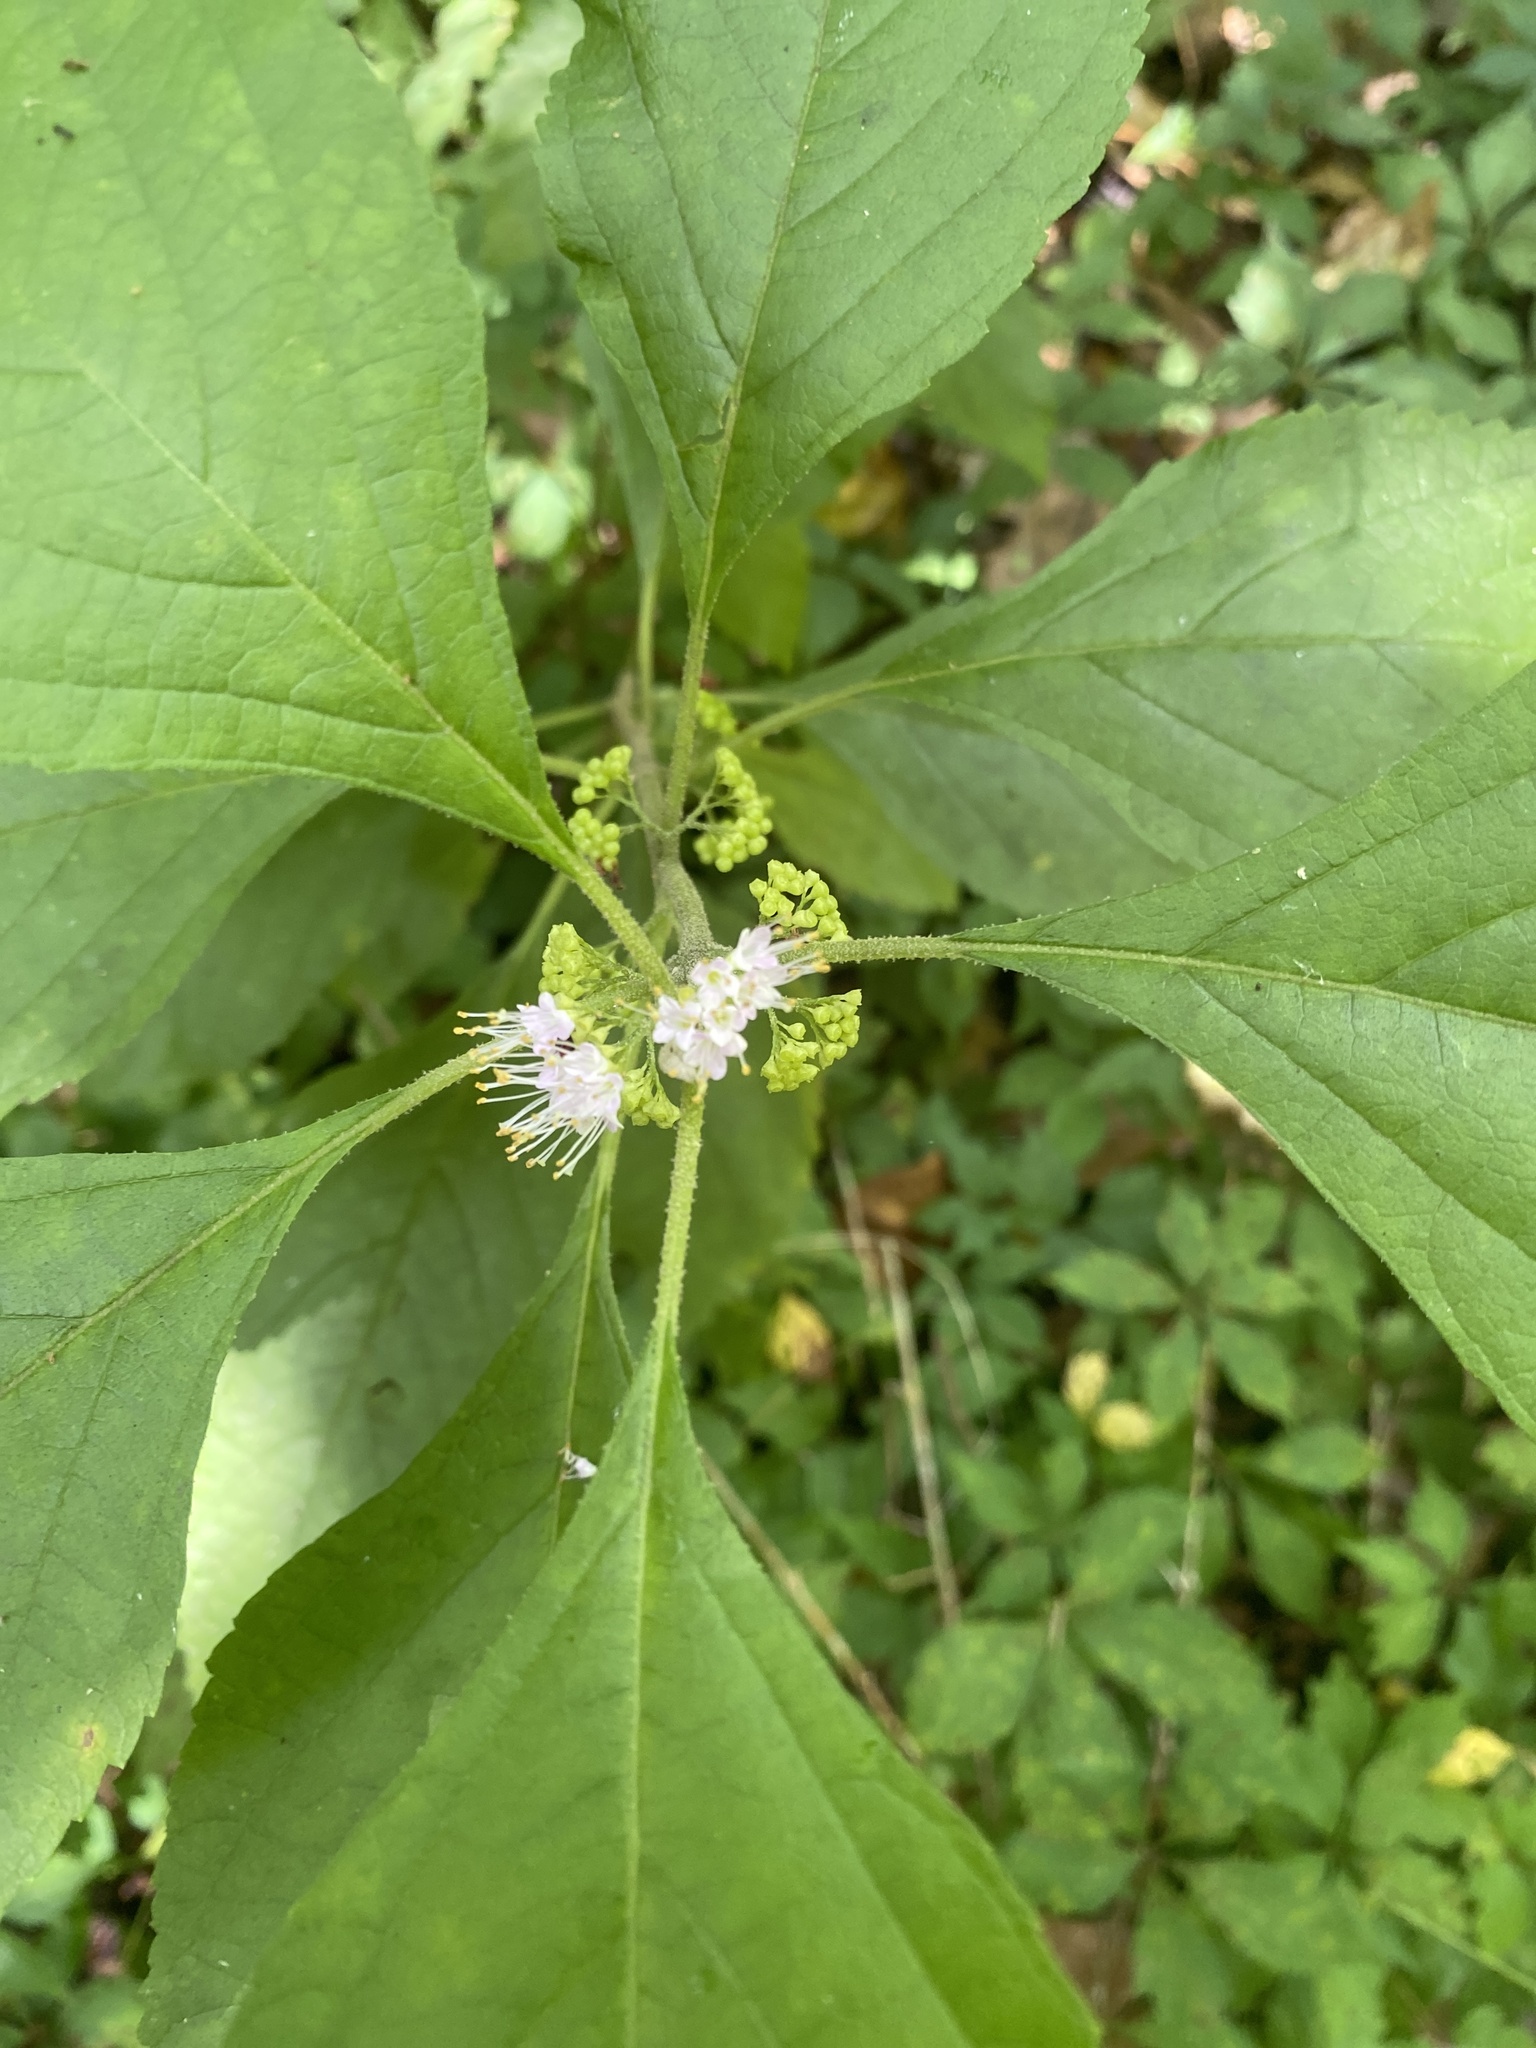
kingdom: Plantae
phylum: Tracheophyta
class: Magnoliopsida
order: Lamiales
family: Lamiaceae
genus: Callicarpa
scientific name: Callicarpa americana
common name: American beautyberry
